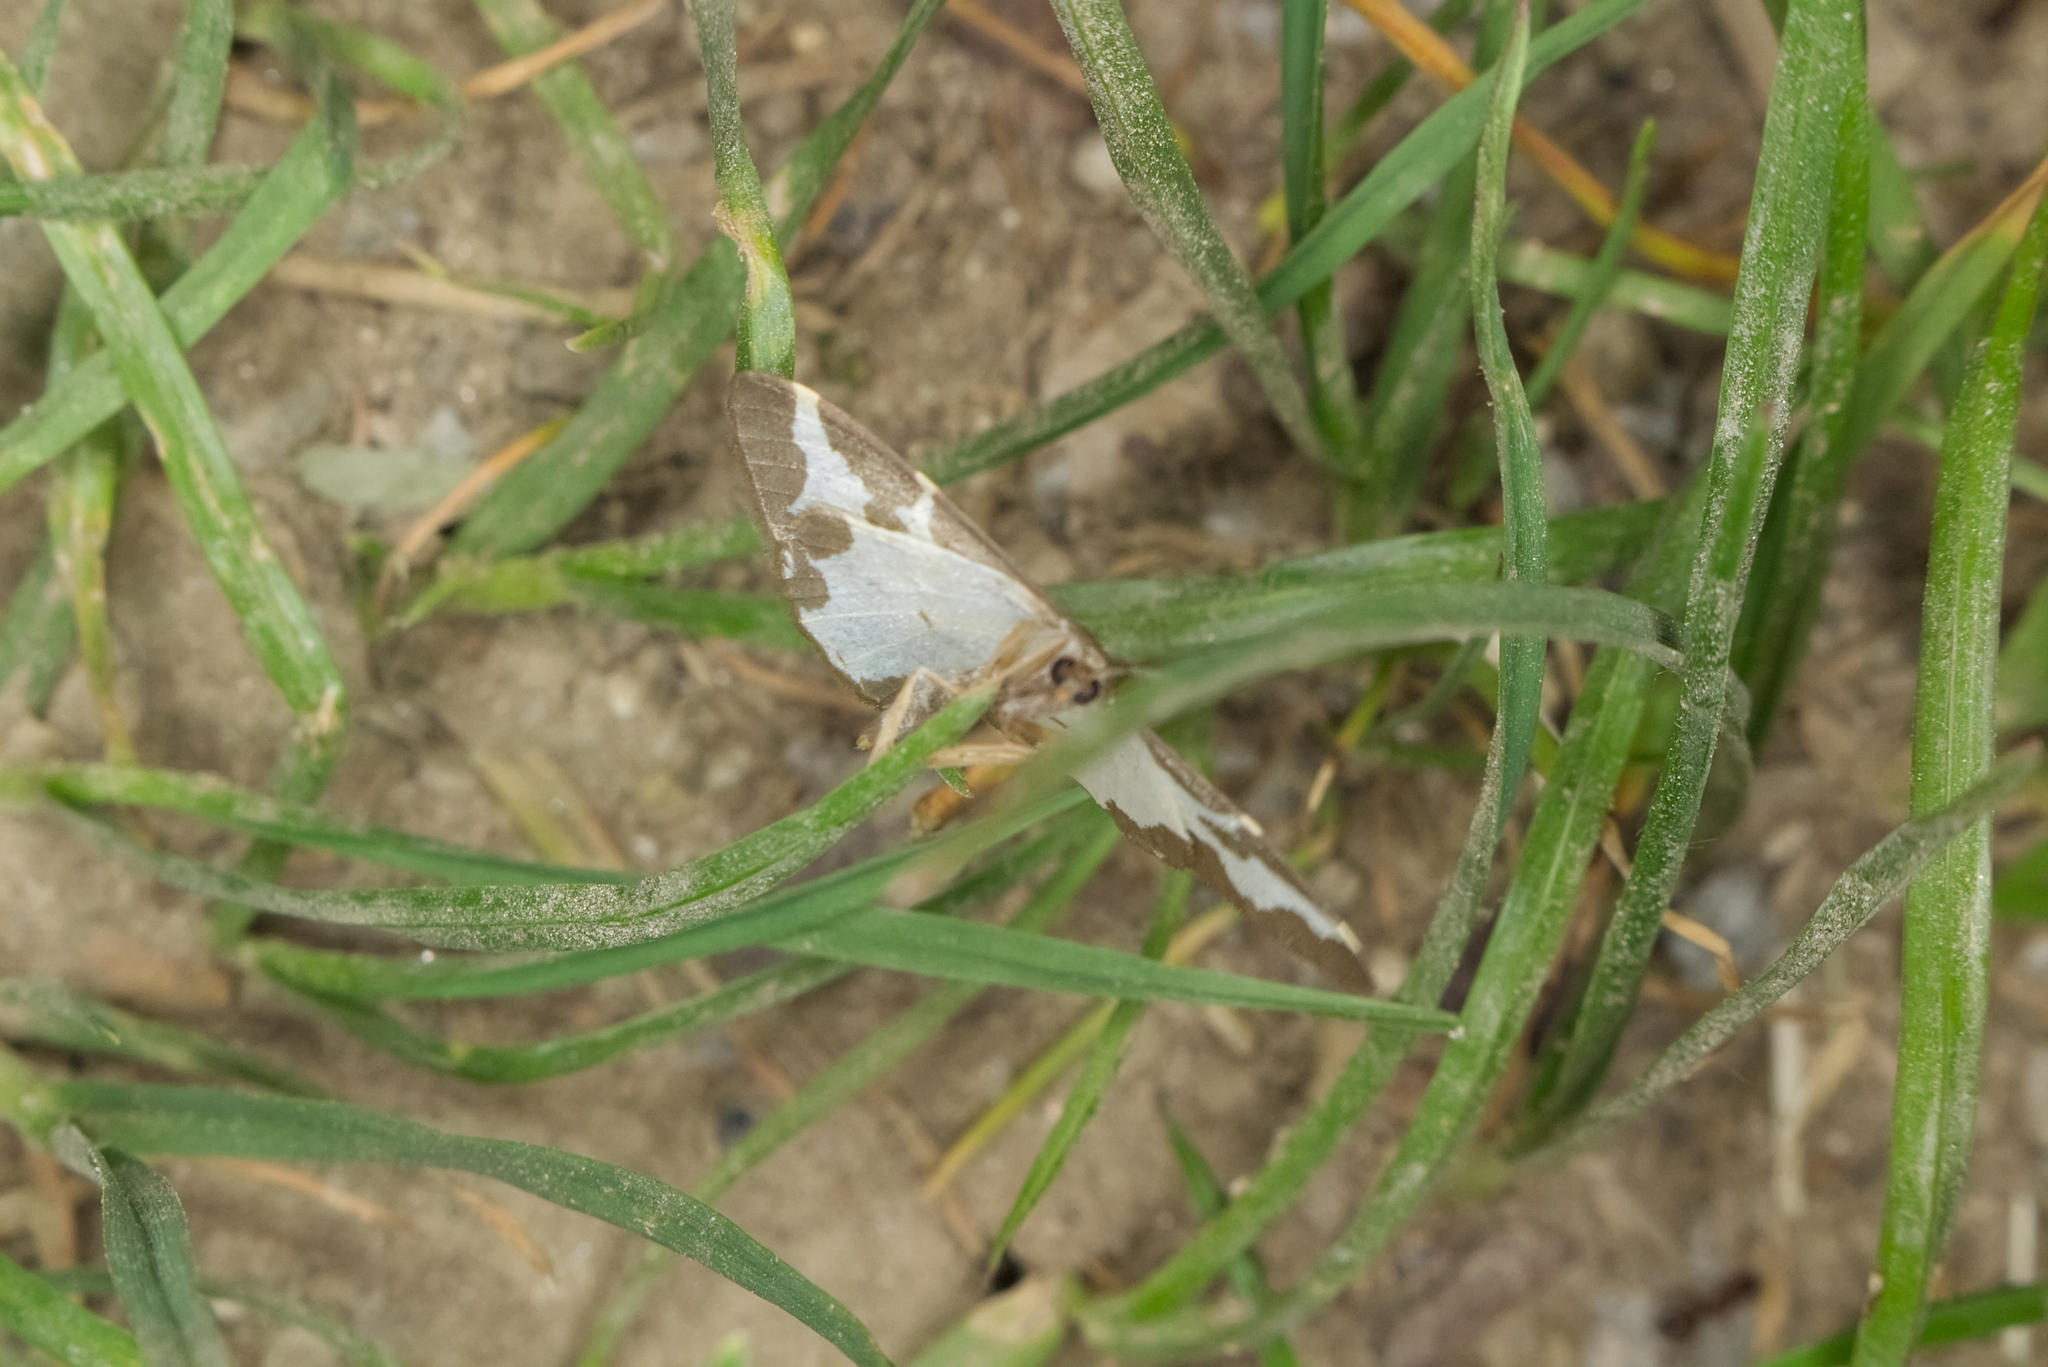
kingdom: Animalia
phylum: Arthropoda
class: Insecta
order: Lepidoptera
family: Geometridae
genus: Lomaspilis
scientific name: Lomaspilis marginata
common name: Clouded border
